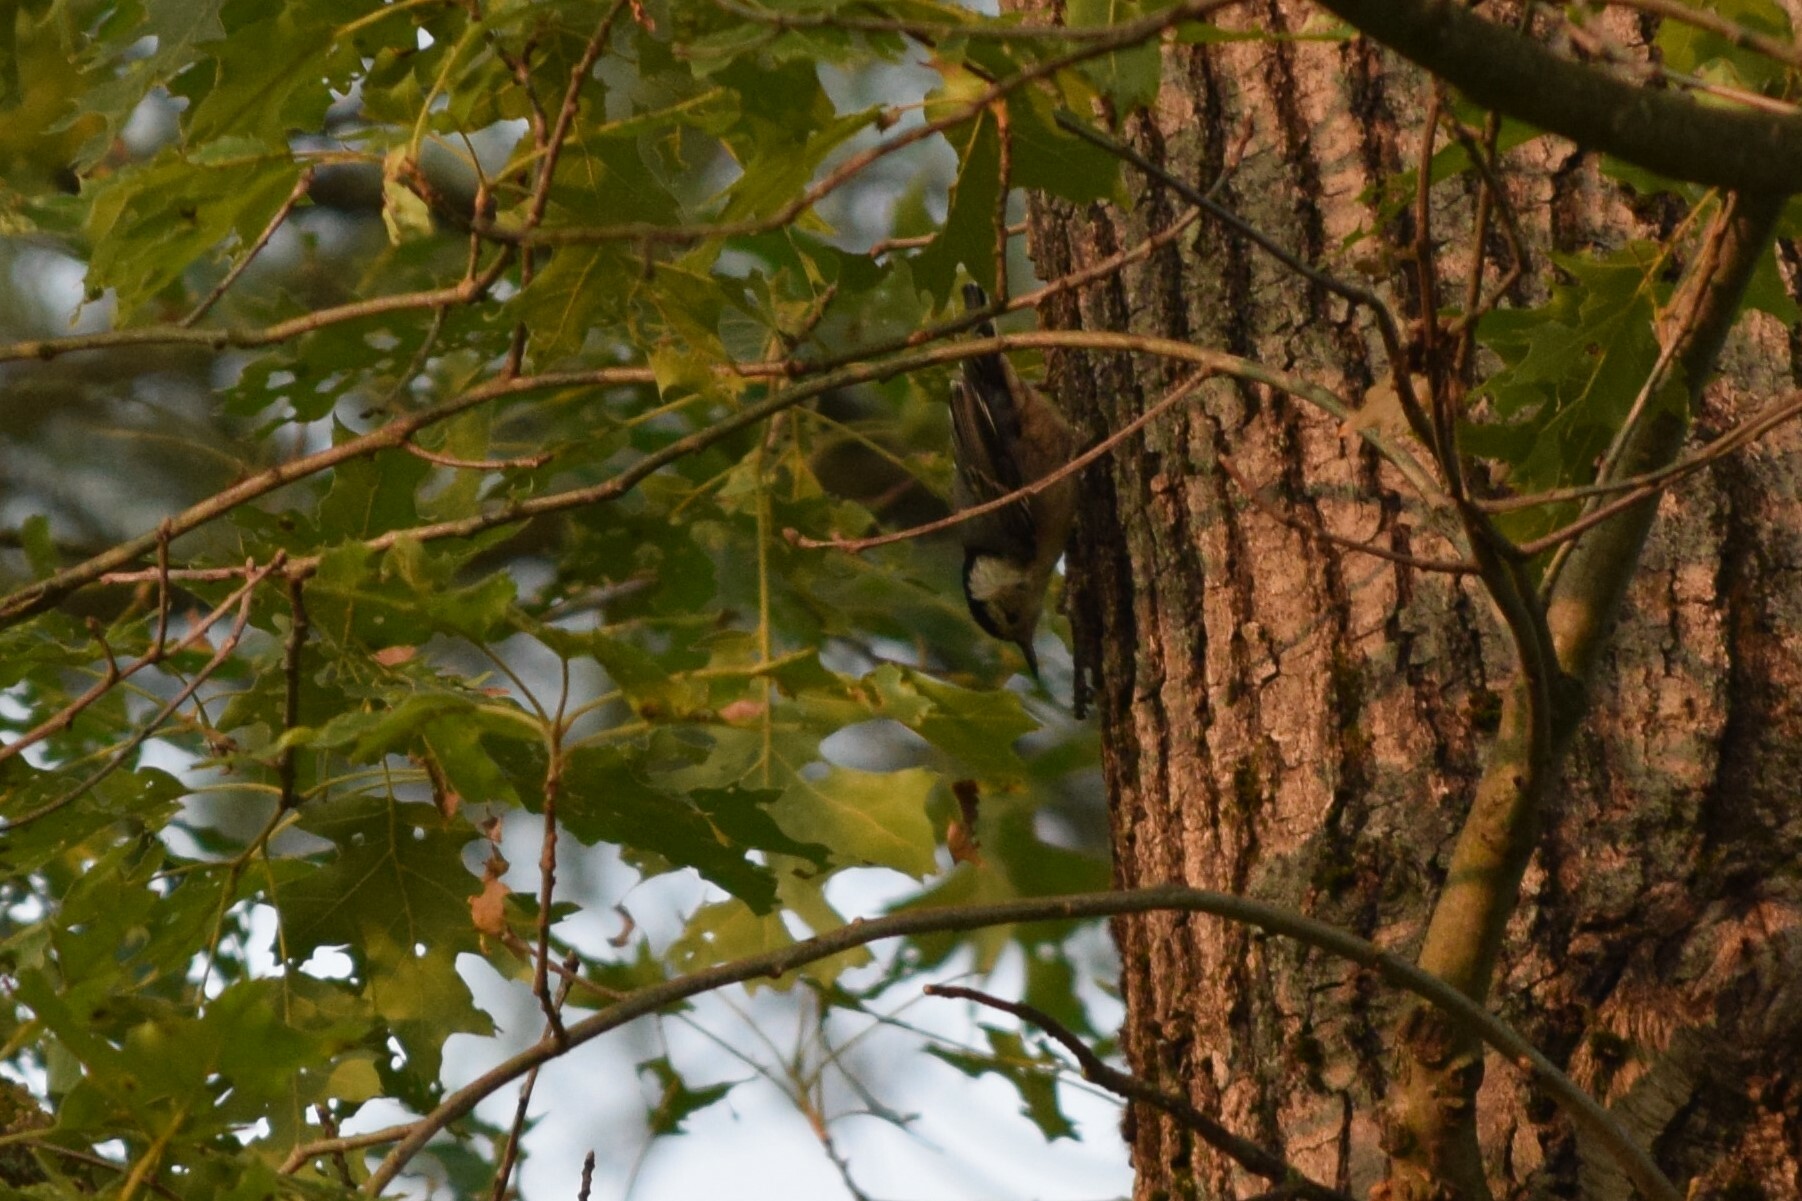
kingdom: Animalia
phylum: Chordata
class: Aves
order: Passeriformes
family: Sittidae
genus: Sitta
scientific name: Sitta carolinensis
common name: White-breasted nuthatch
